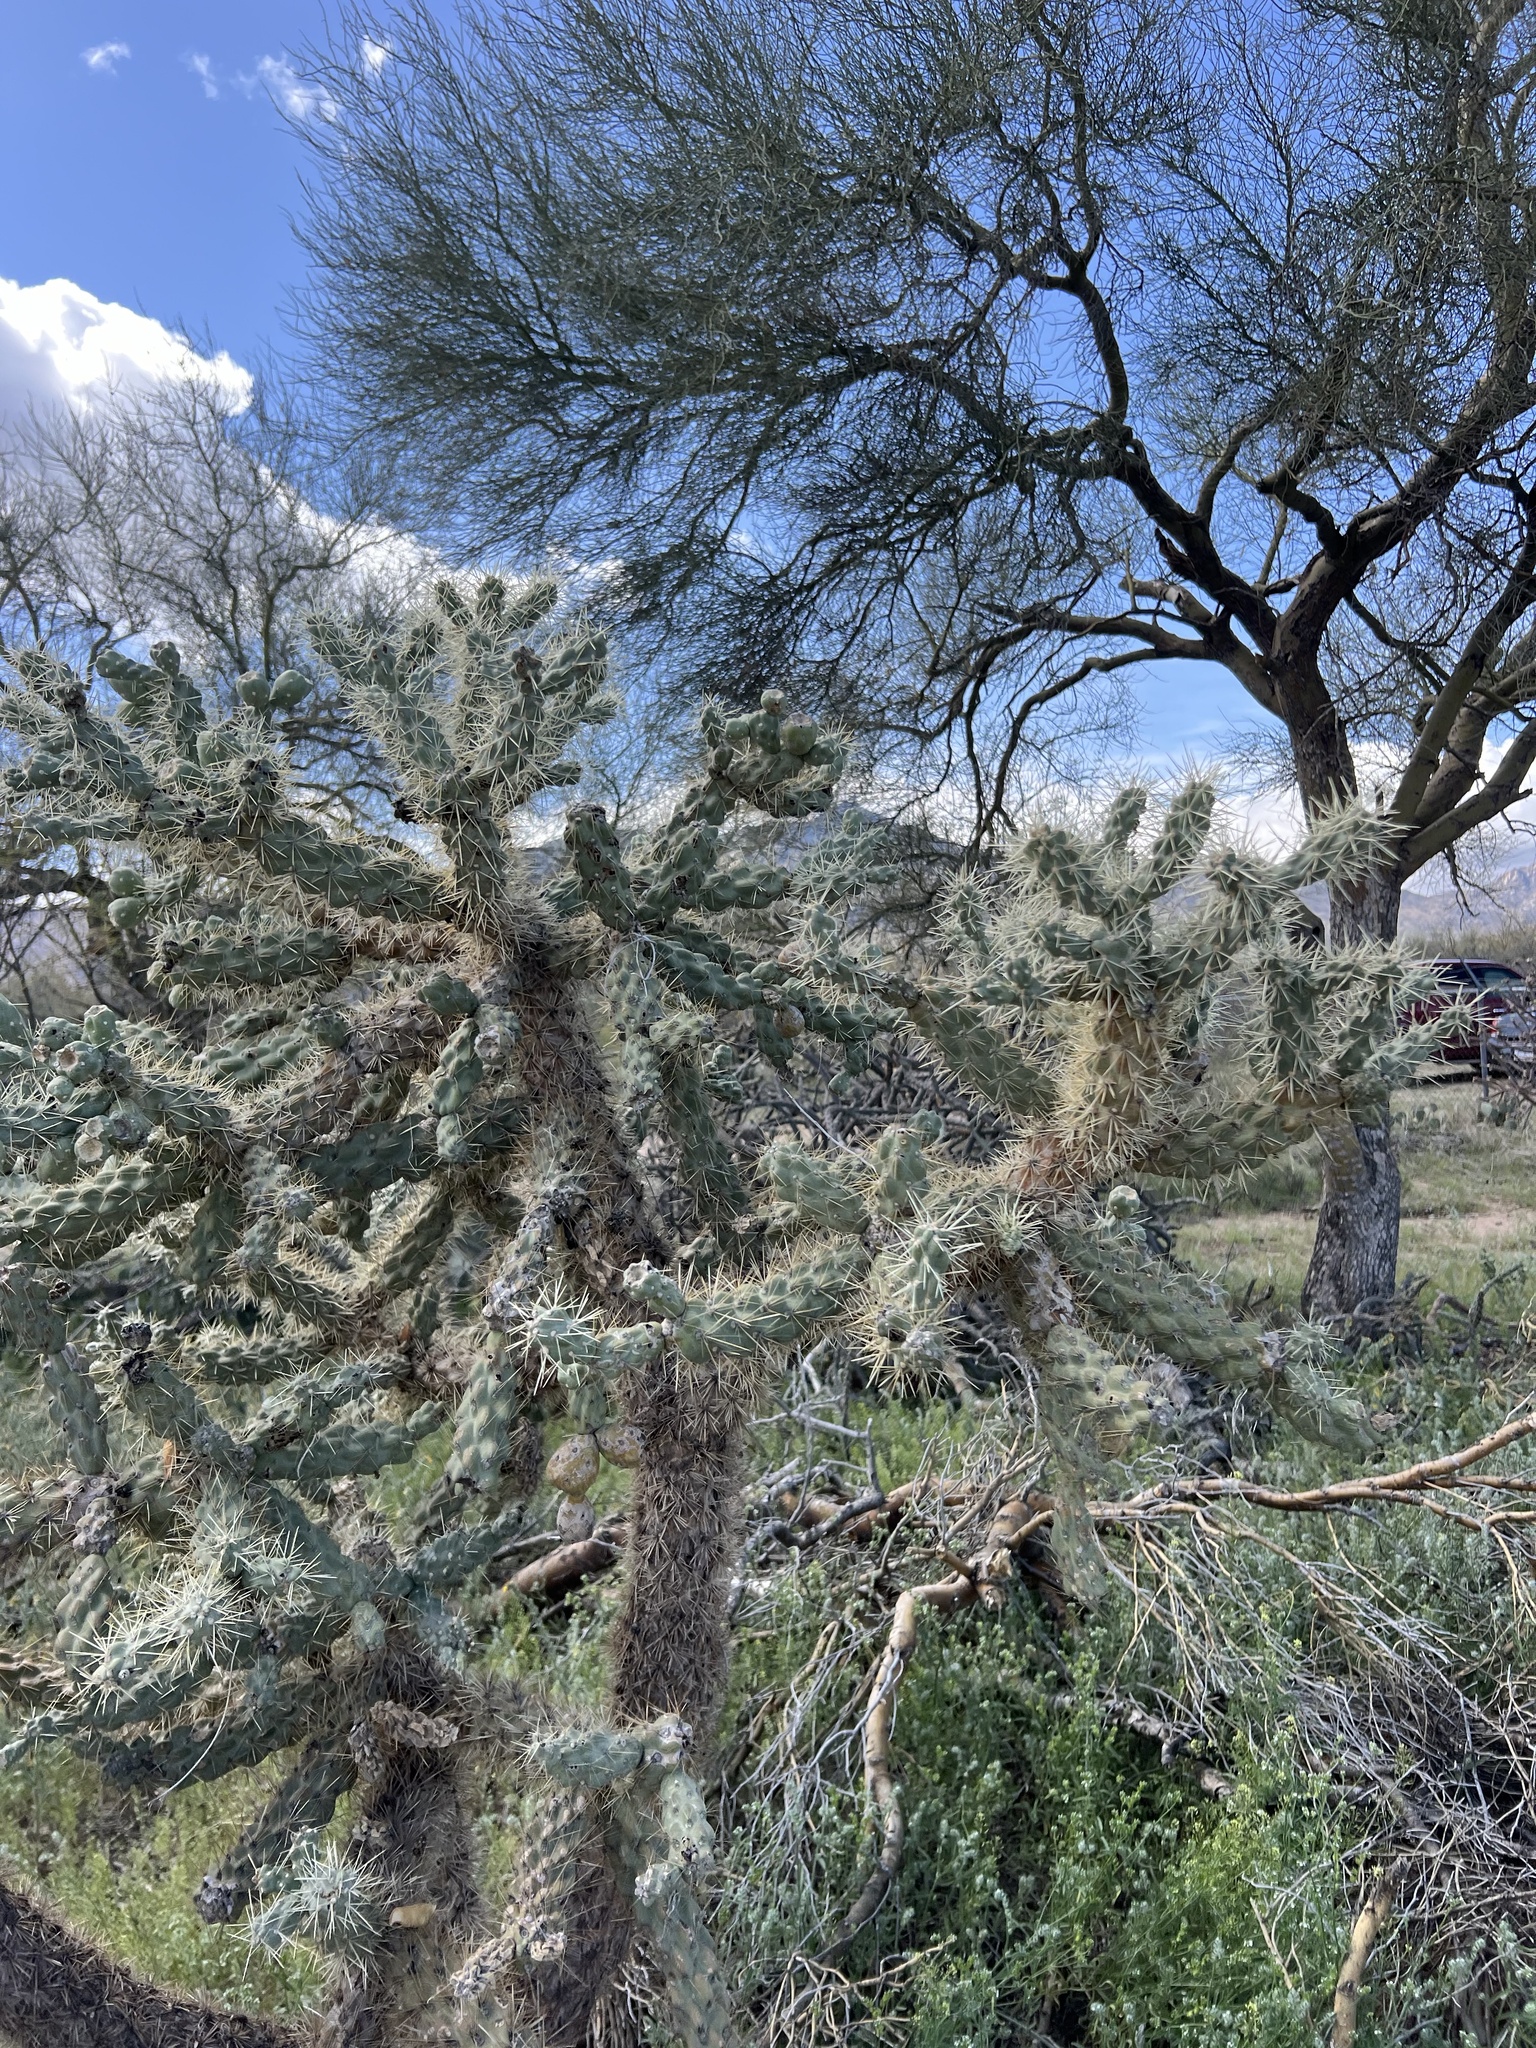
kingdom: Plantae
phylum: Tracheophyta
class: Magnoliopsida
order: Caryophyllales
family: Cactaceae
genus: Cylindropuntia
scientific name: Cylindropuntia fulgida
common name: Jumping cholla
